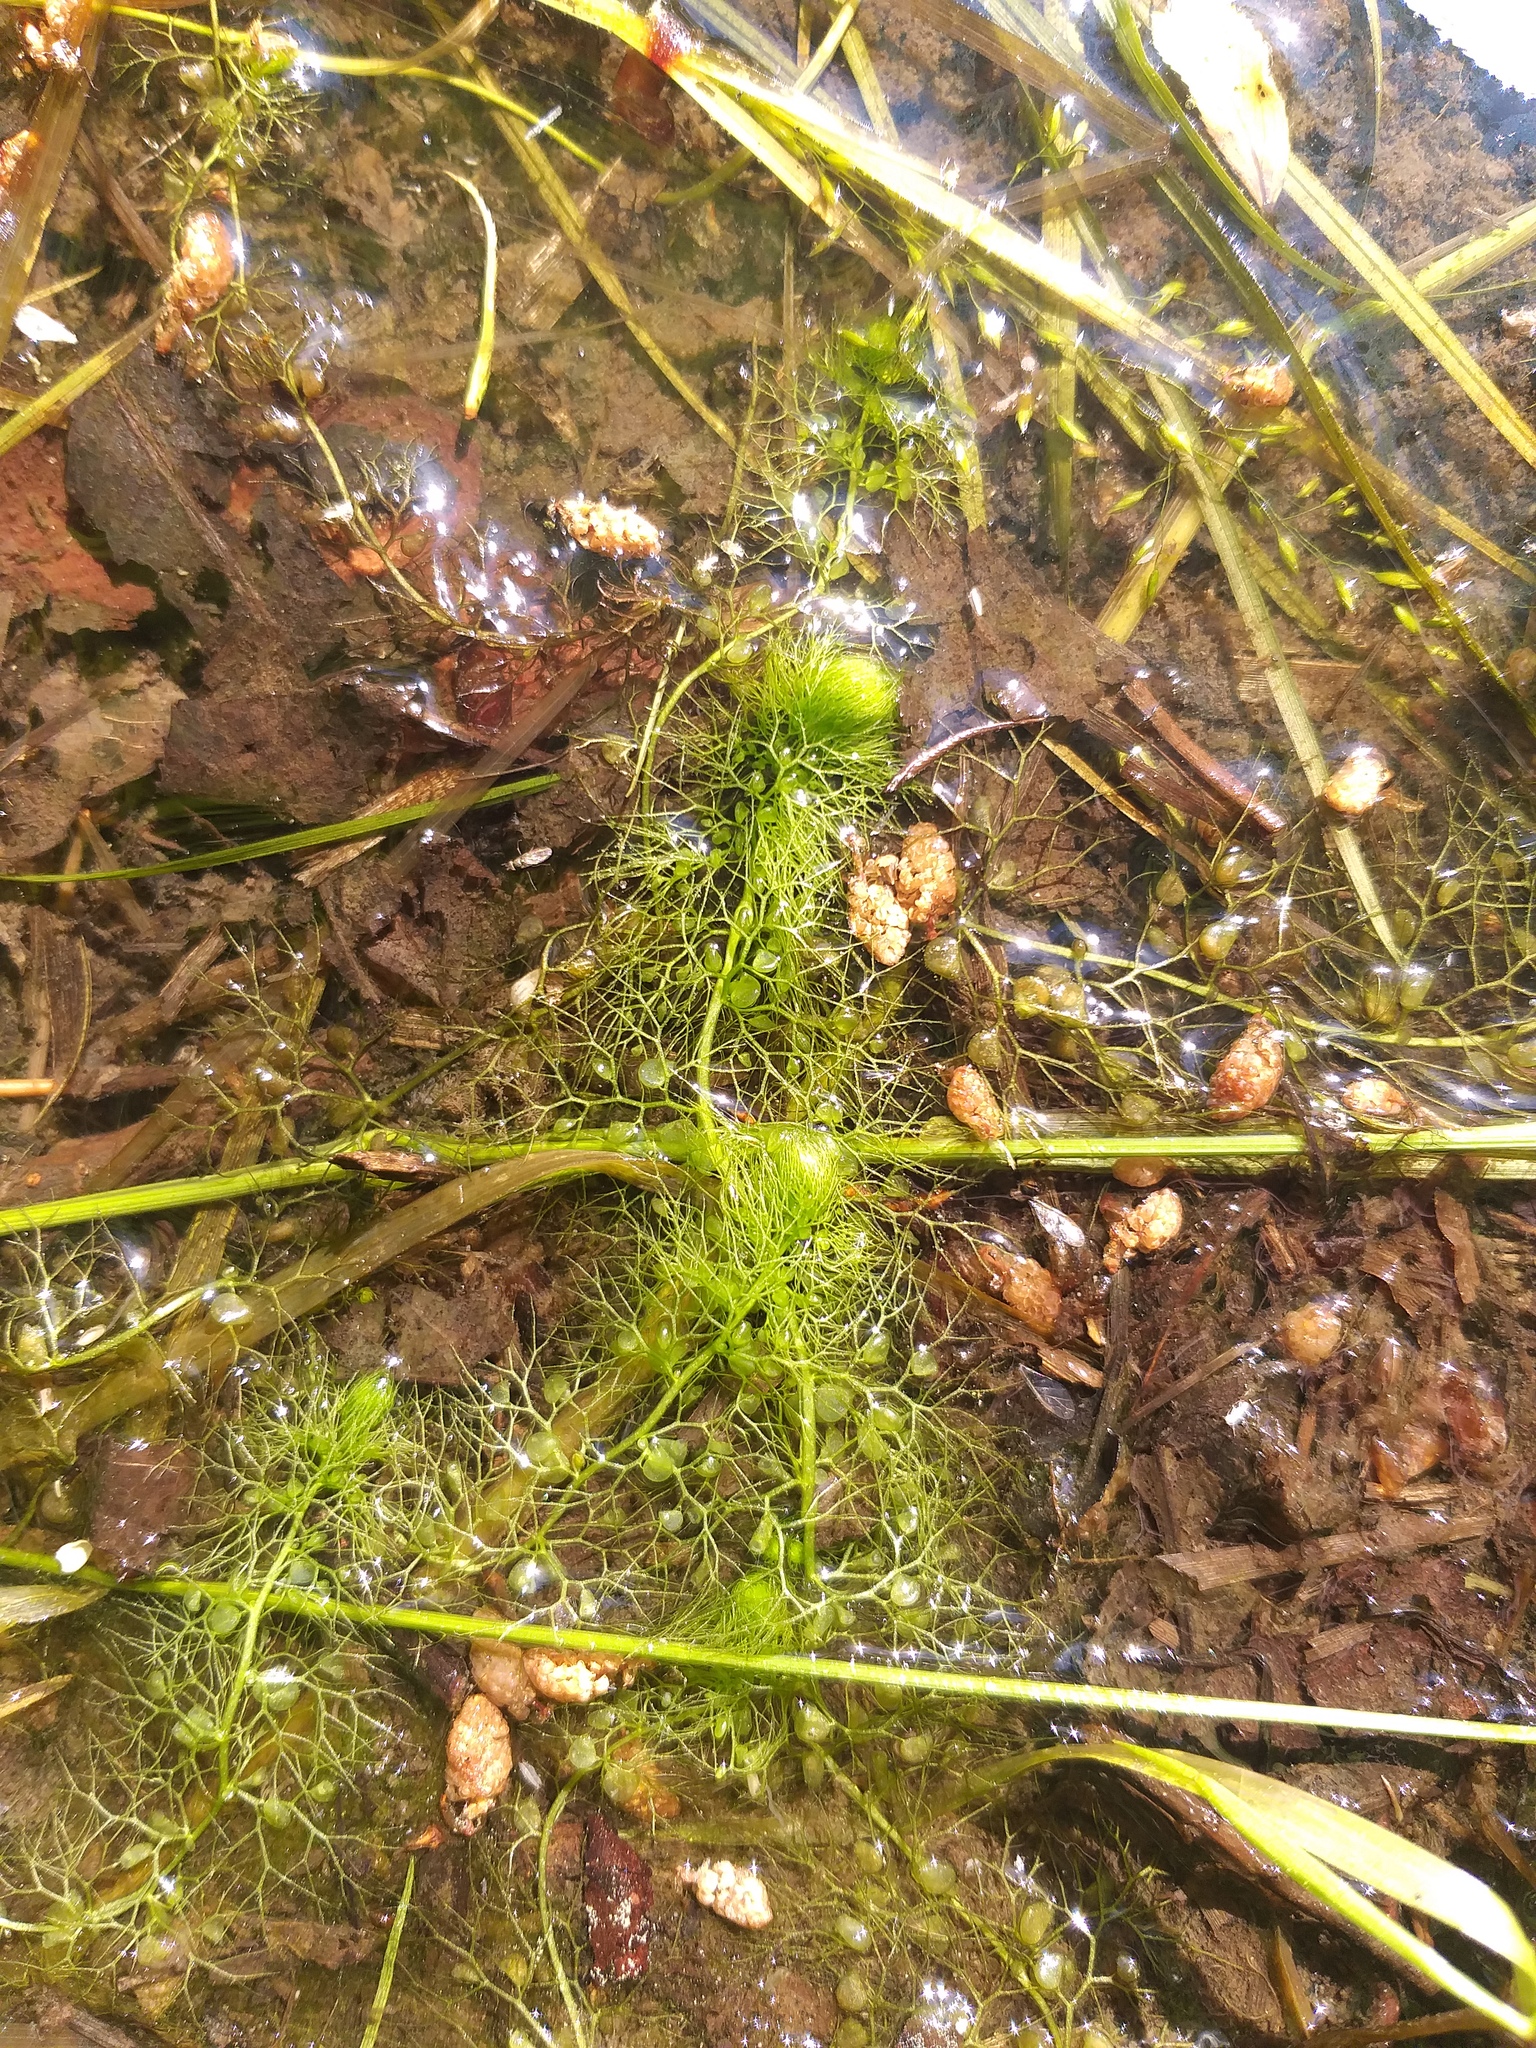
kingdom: Plantae
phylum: Tracheophyta
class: Magnoliopsida
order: Lamiales
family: Lentibulariaceae
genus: Utricularia
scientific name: Utricularia
